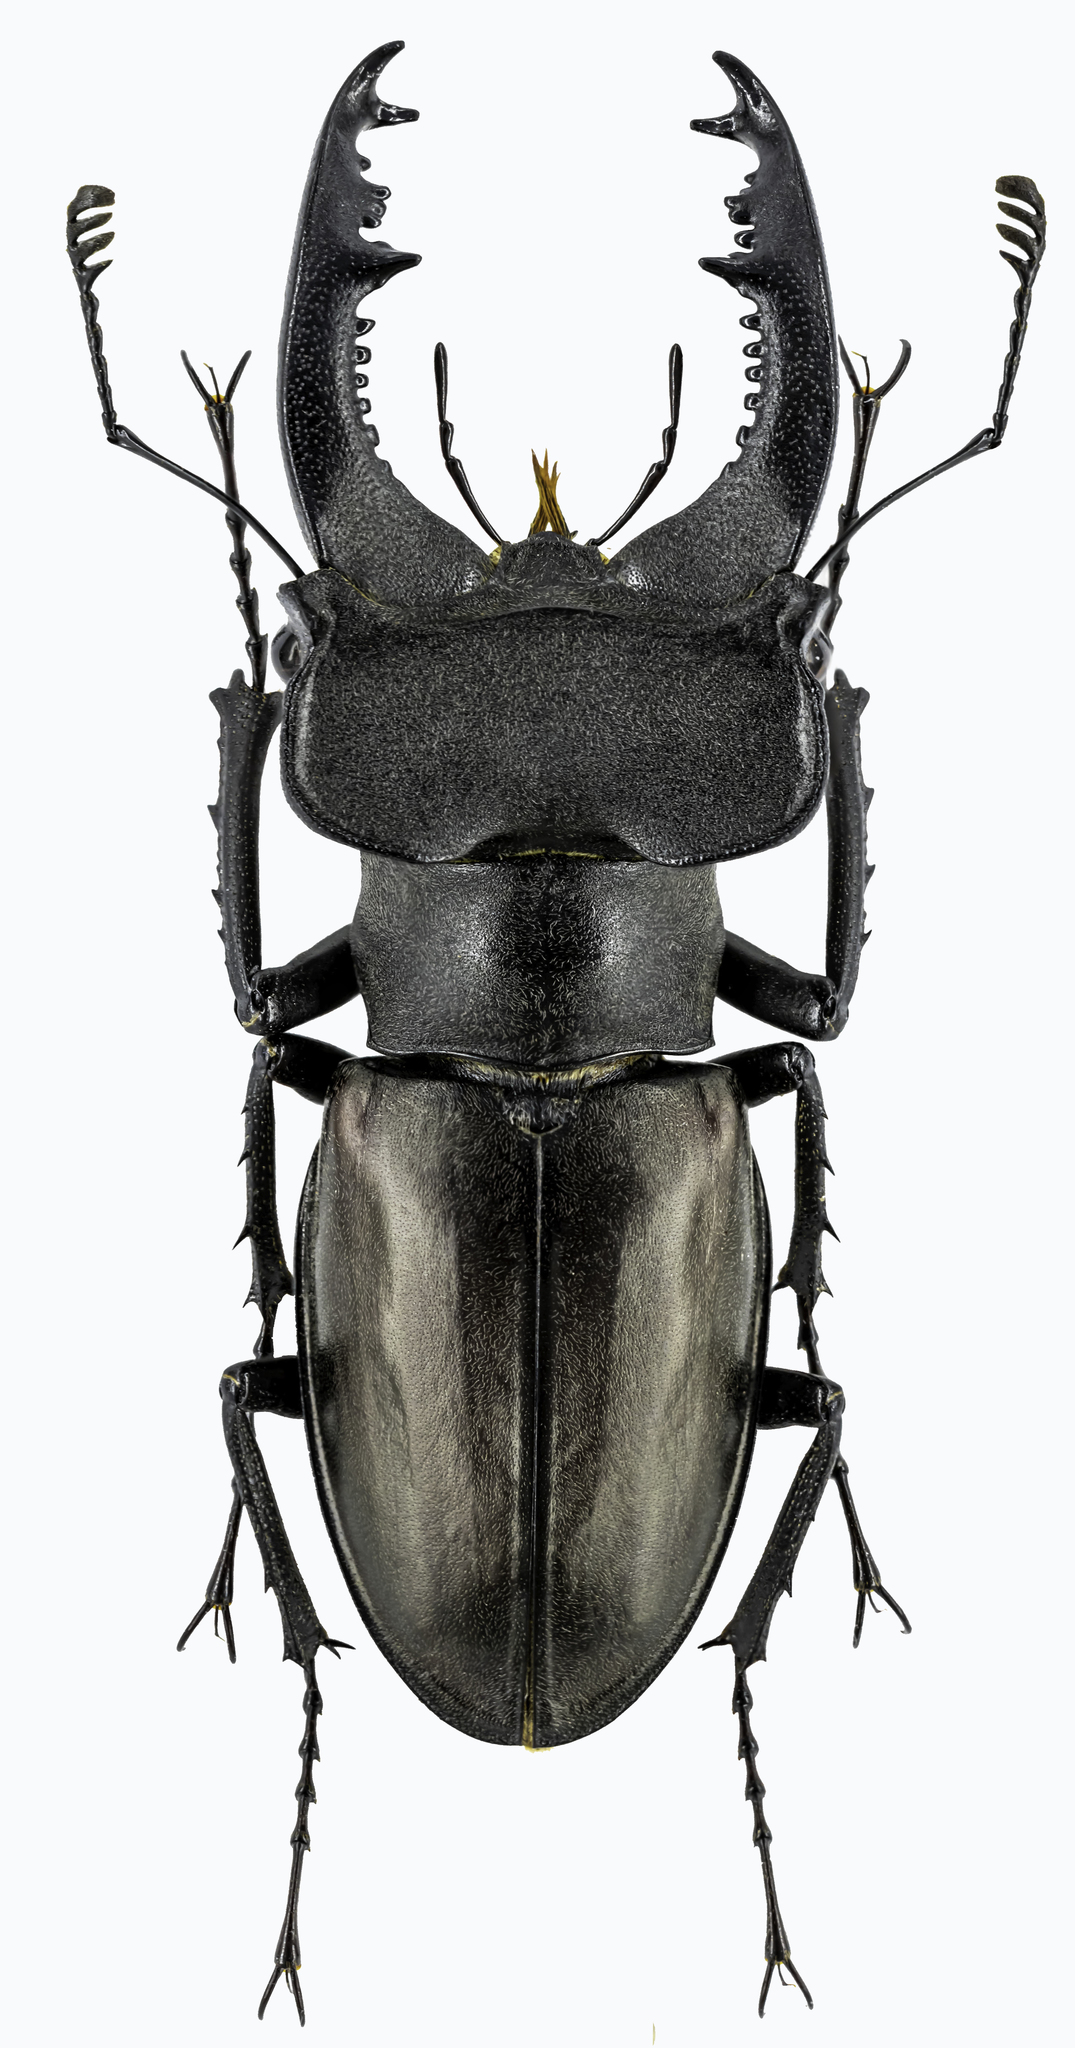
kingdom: Animalia
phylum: Arthropoda
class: Insecta
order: Coleoptera
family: Lucanidae
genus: Lucanus
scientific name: Lucanus klapperichi
